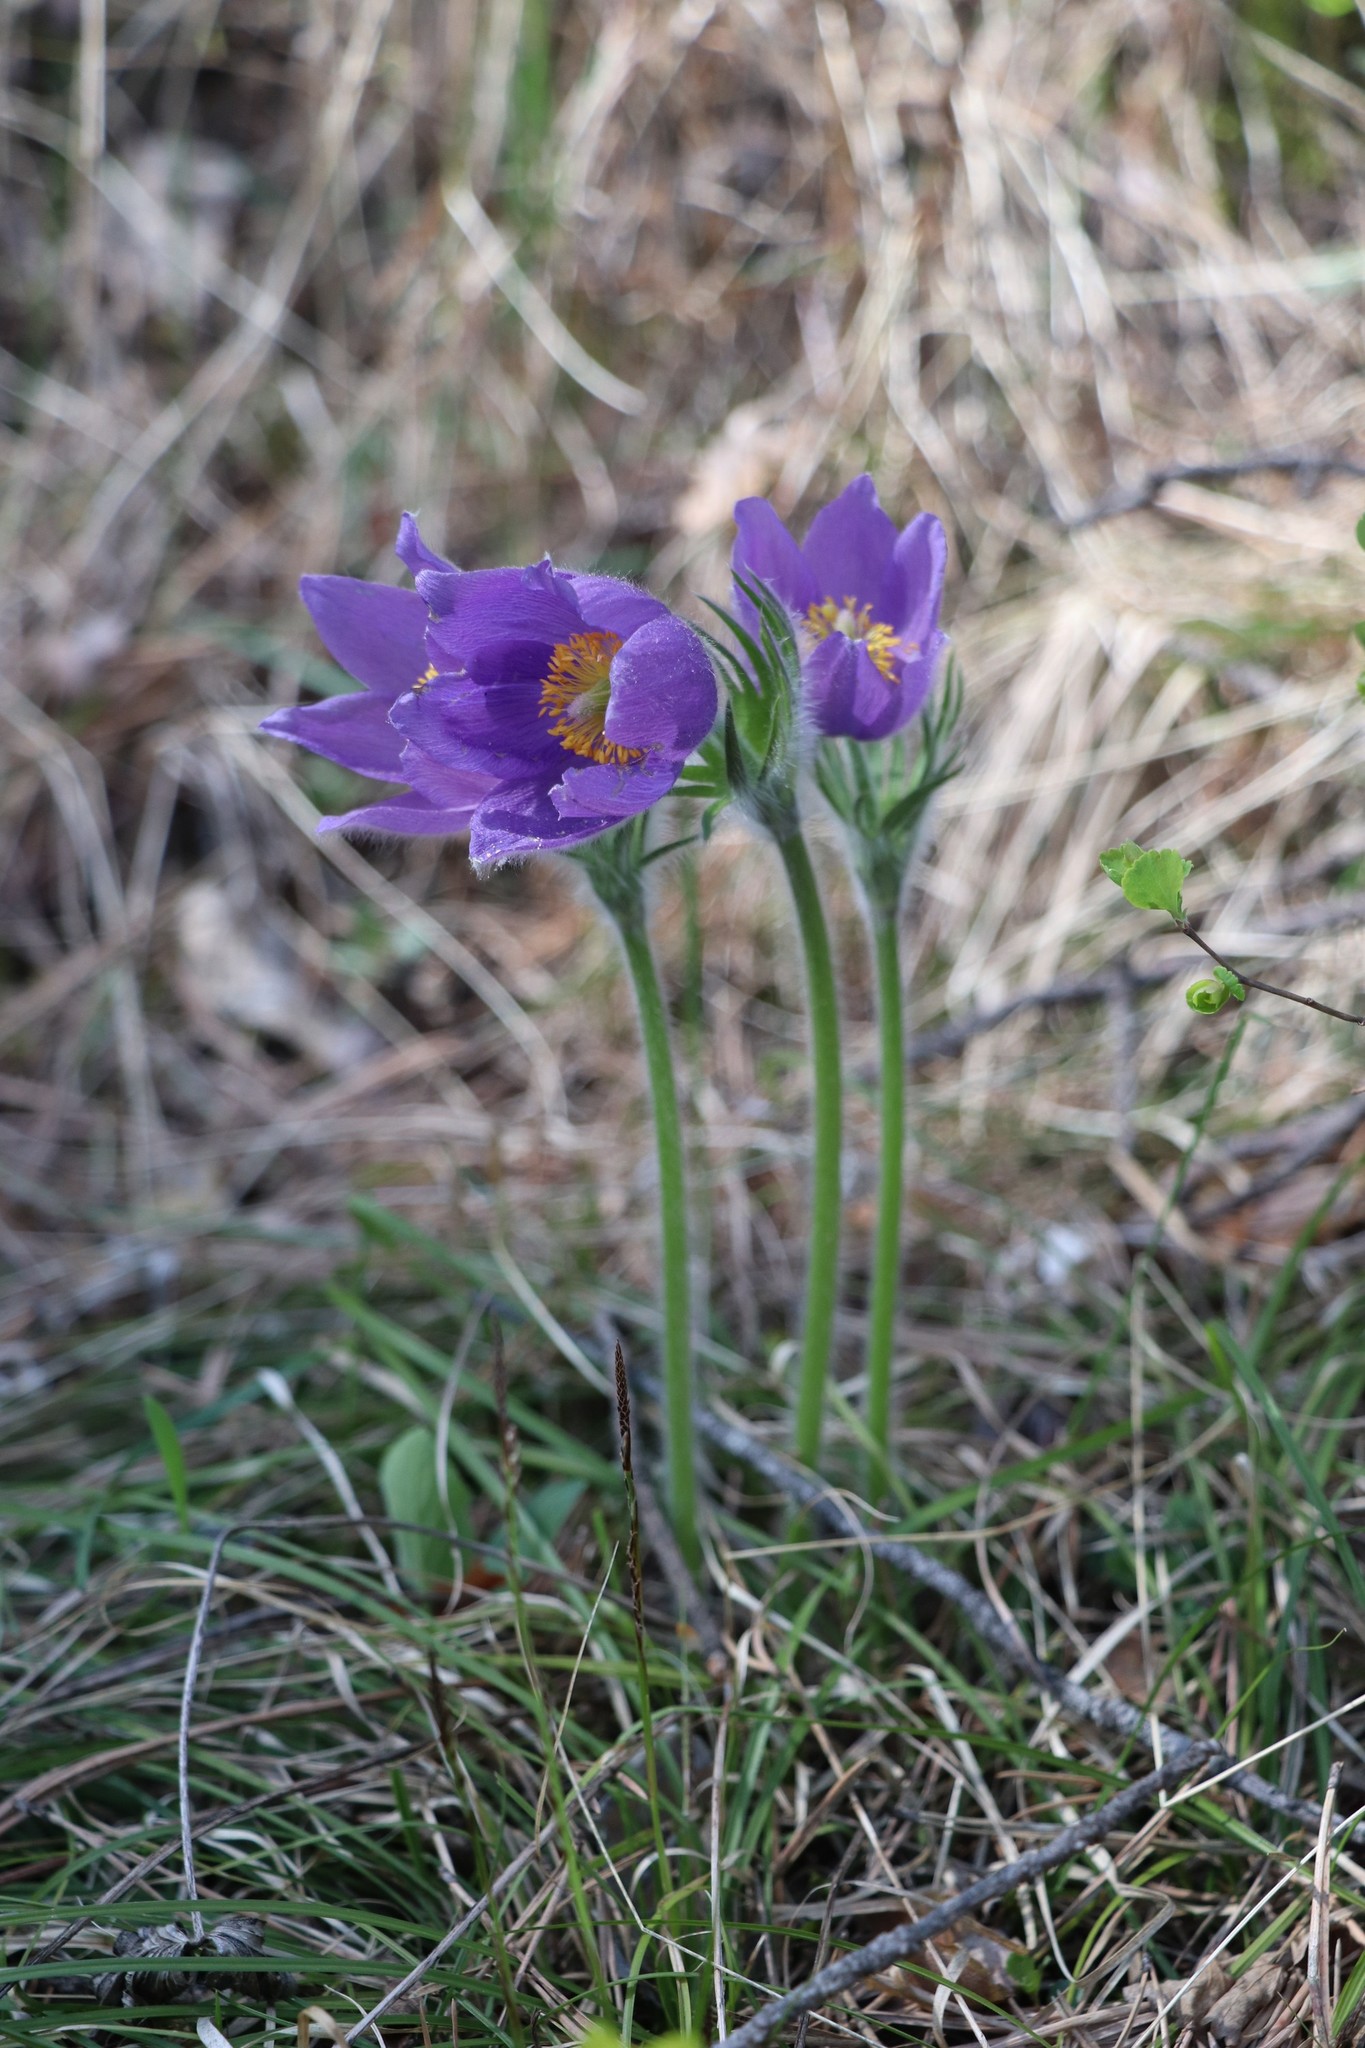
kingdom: Plantae
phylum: Tracheophyta
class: Magnoliopsida
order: Ranunculales
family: Ranunculaceae
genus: Pulsatilla
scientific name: Pulsatilla patens
